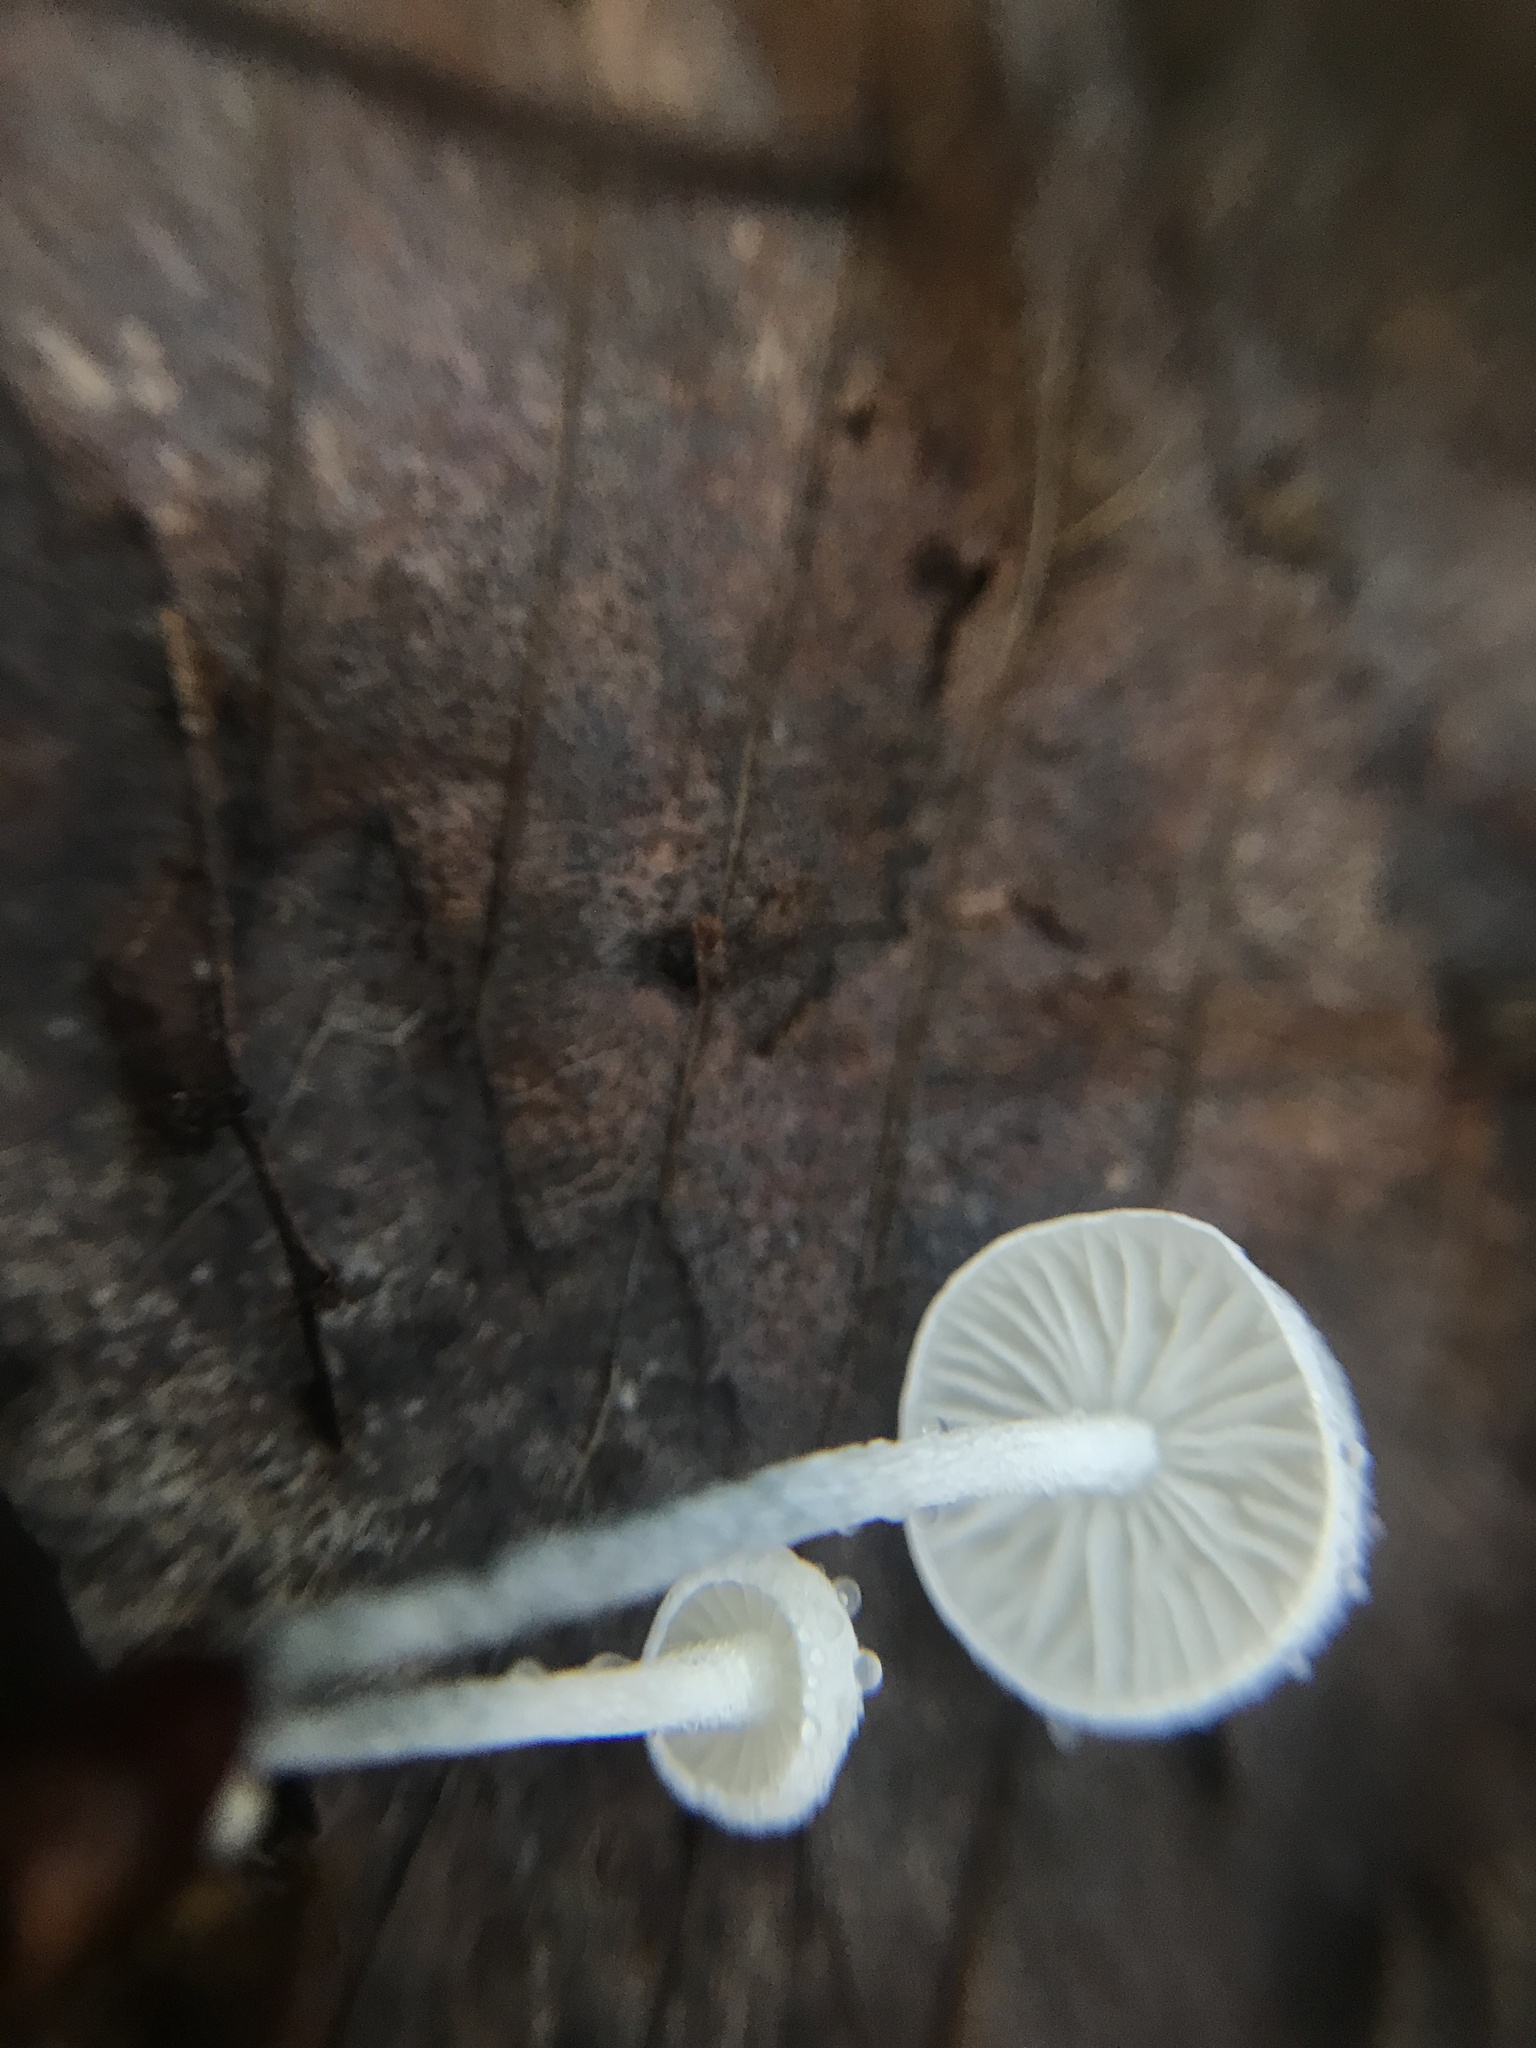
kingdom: Fungi
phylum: Basidiomycota
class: Agaricomycetes
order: Agaricales
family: Marasmiaceae
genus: Tetrapyrgos
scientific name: Tetrapyrgos nigripes
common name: Black-stalked marasmius
